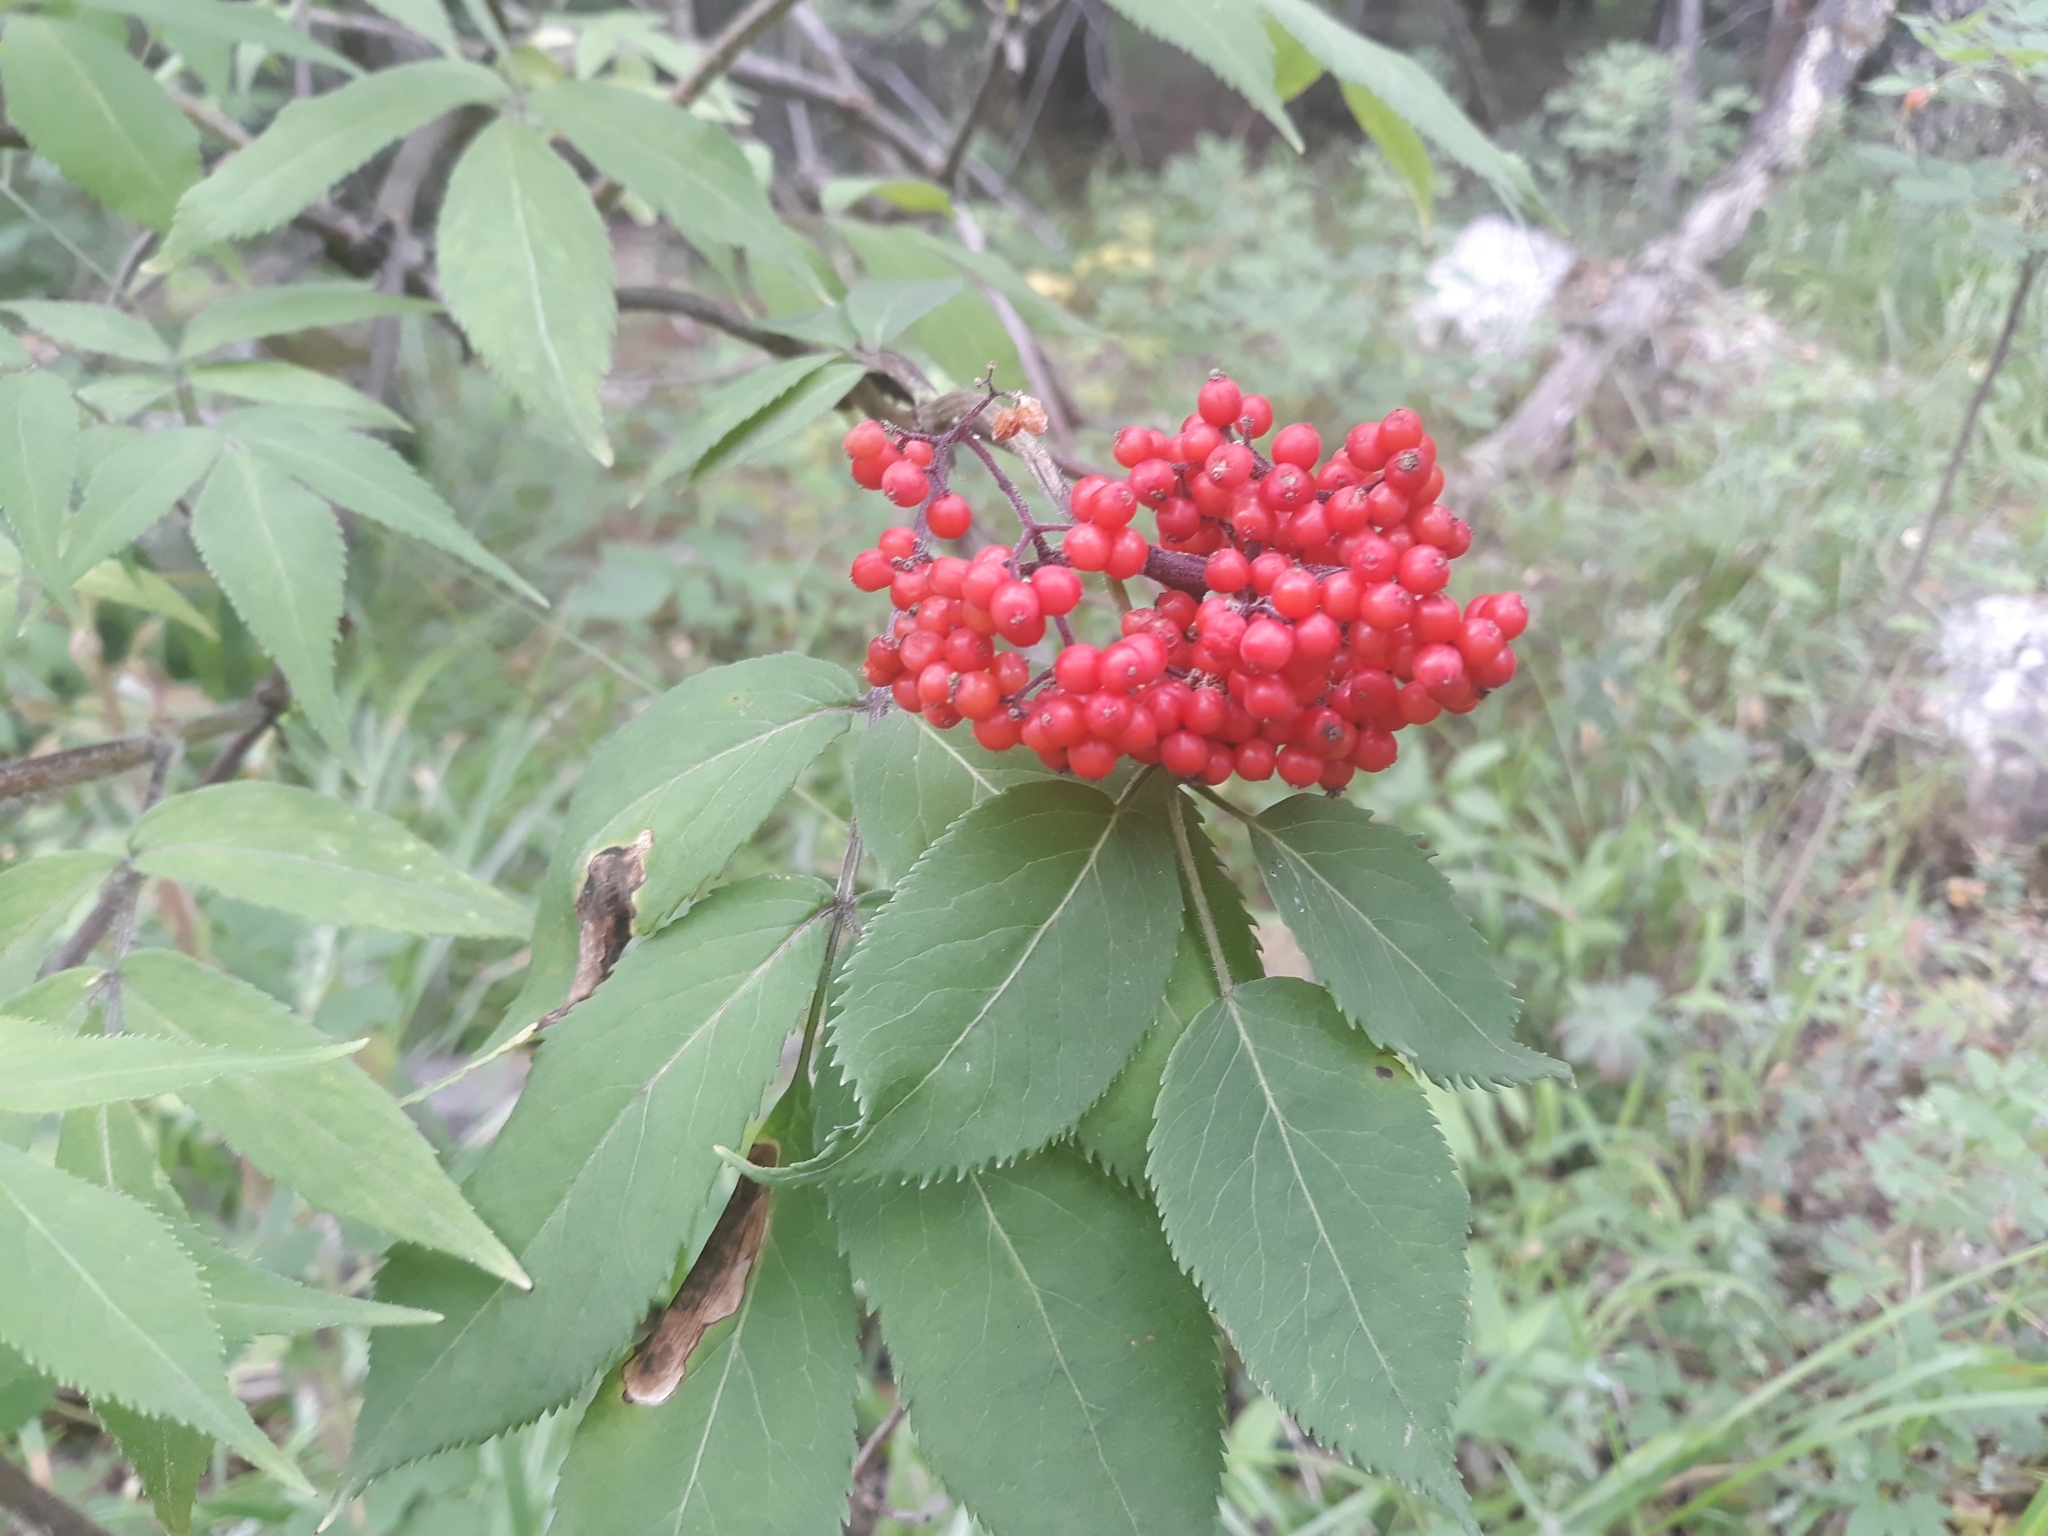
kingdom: Plantae
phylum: Tracheophyta
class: Magnoliopsida
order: Dipsacales
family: Viburnaceae
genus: Sambucus
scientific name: Sambucus racemosa
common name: Red-berried elder
